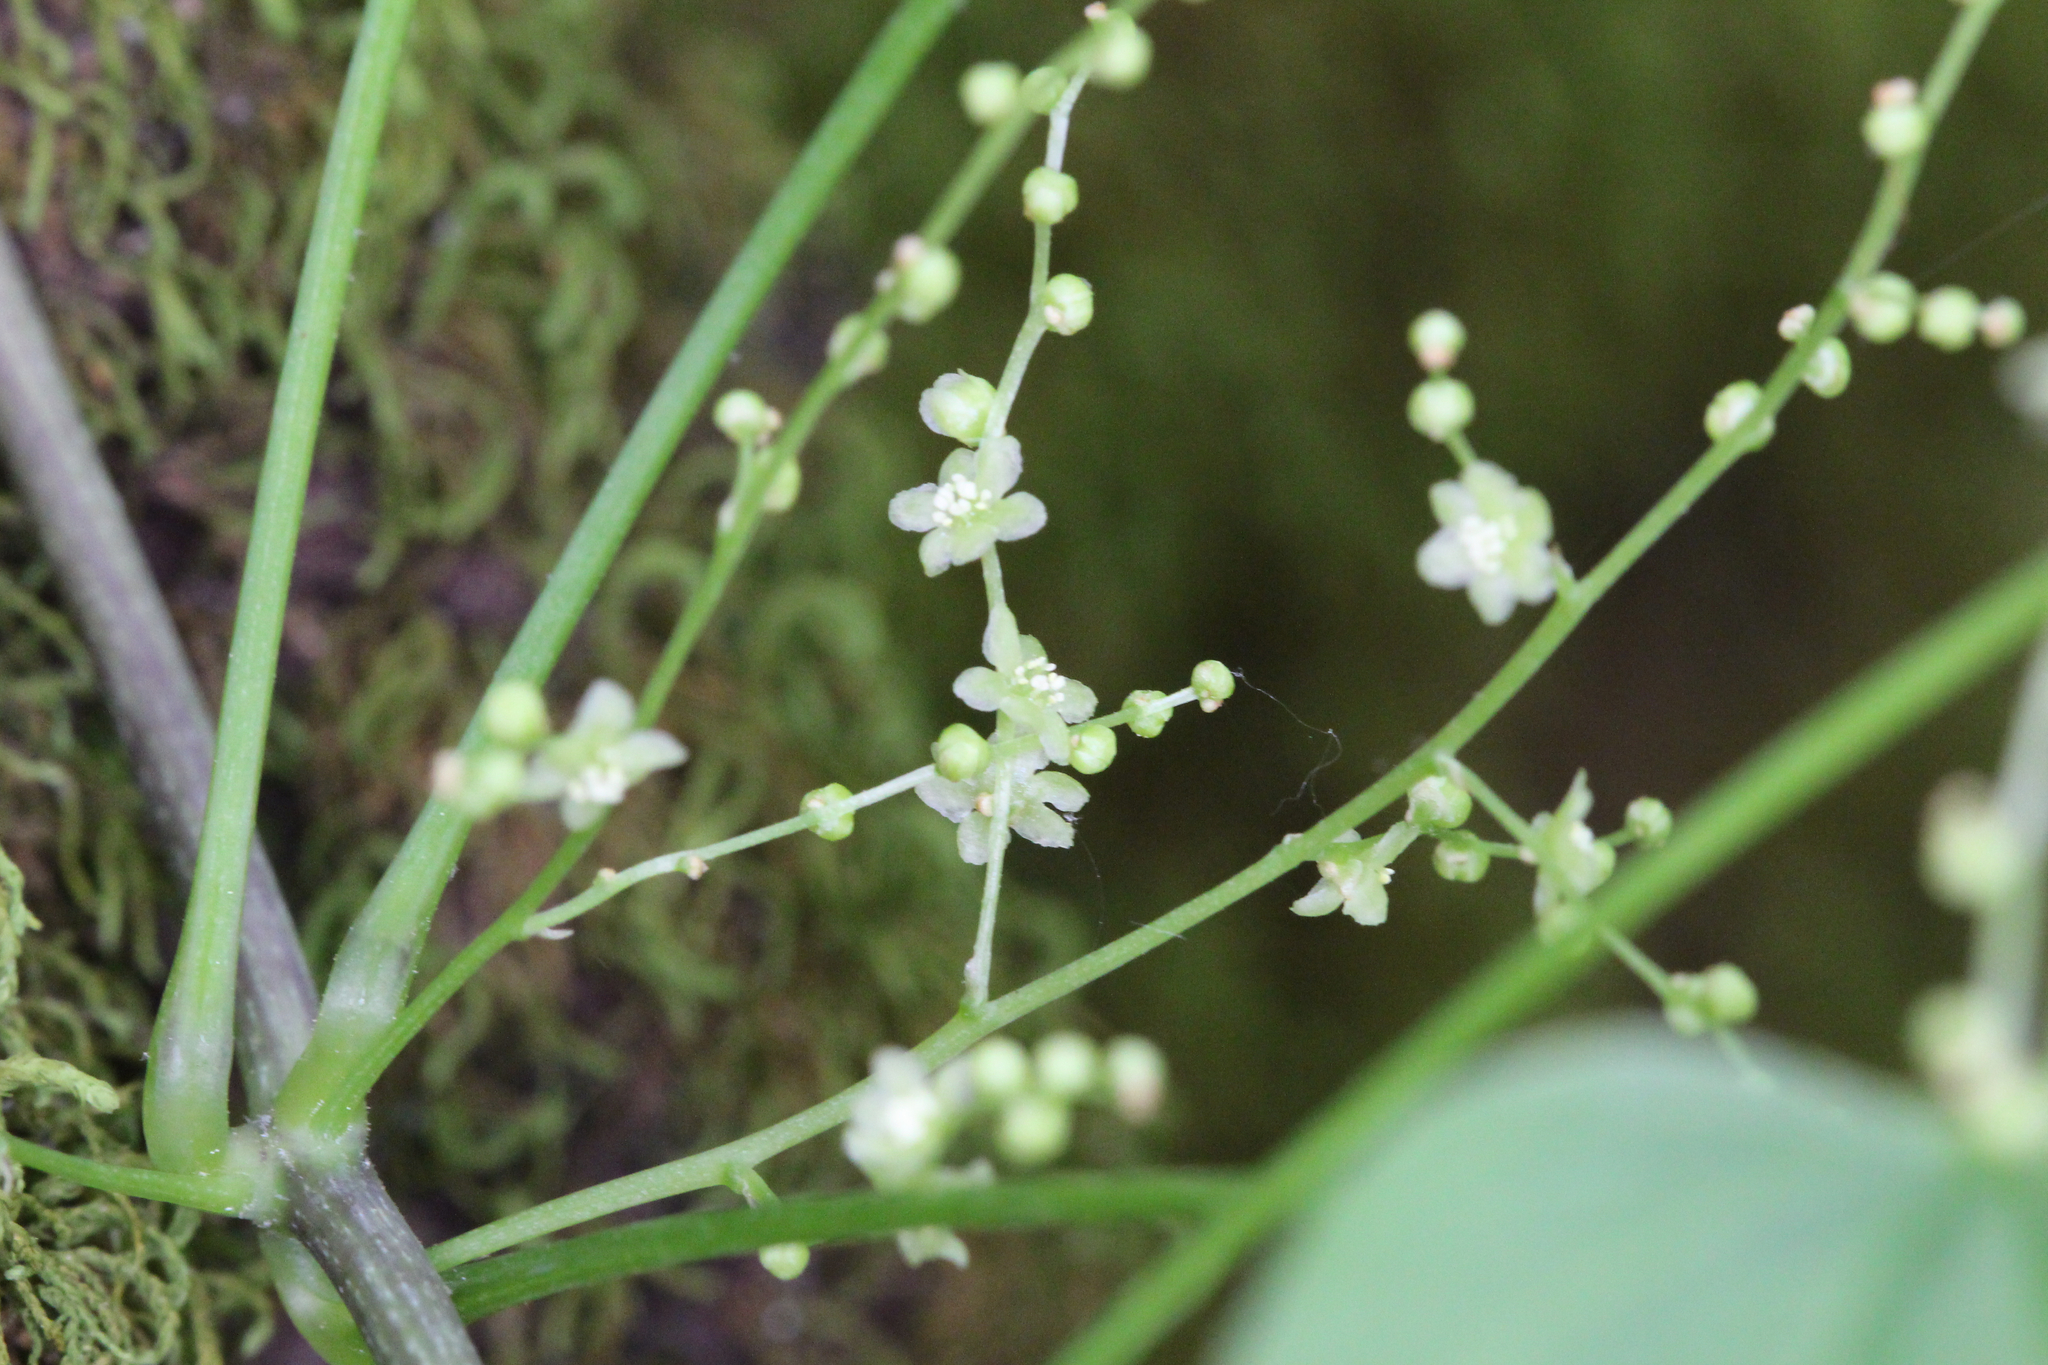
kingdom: Plantae
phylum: Tracheophyta
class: Liliopsida
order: Dioscoreales
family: Dioscoreaceae
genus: Dioscorea
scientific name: Dioscorea villosa
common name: Wild yam
